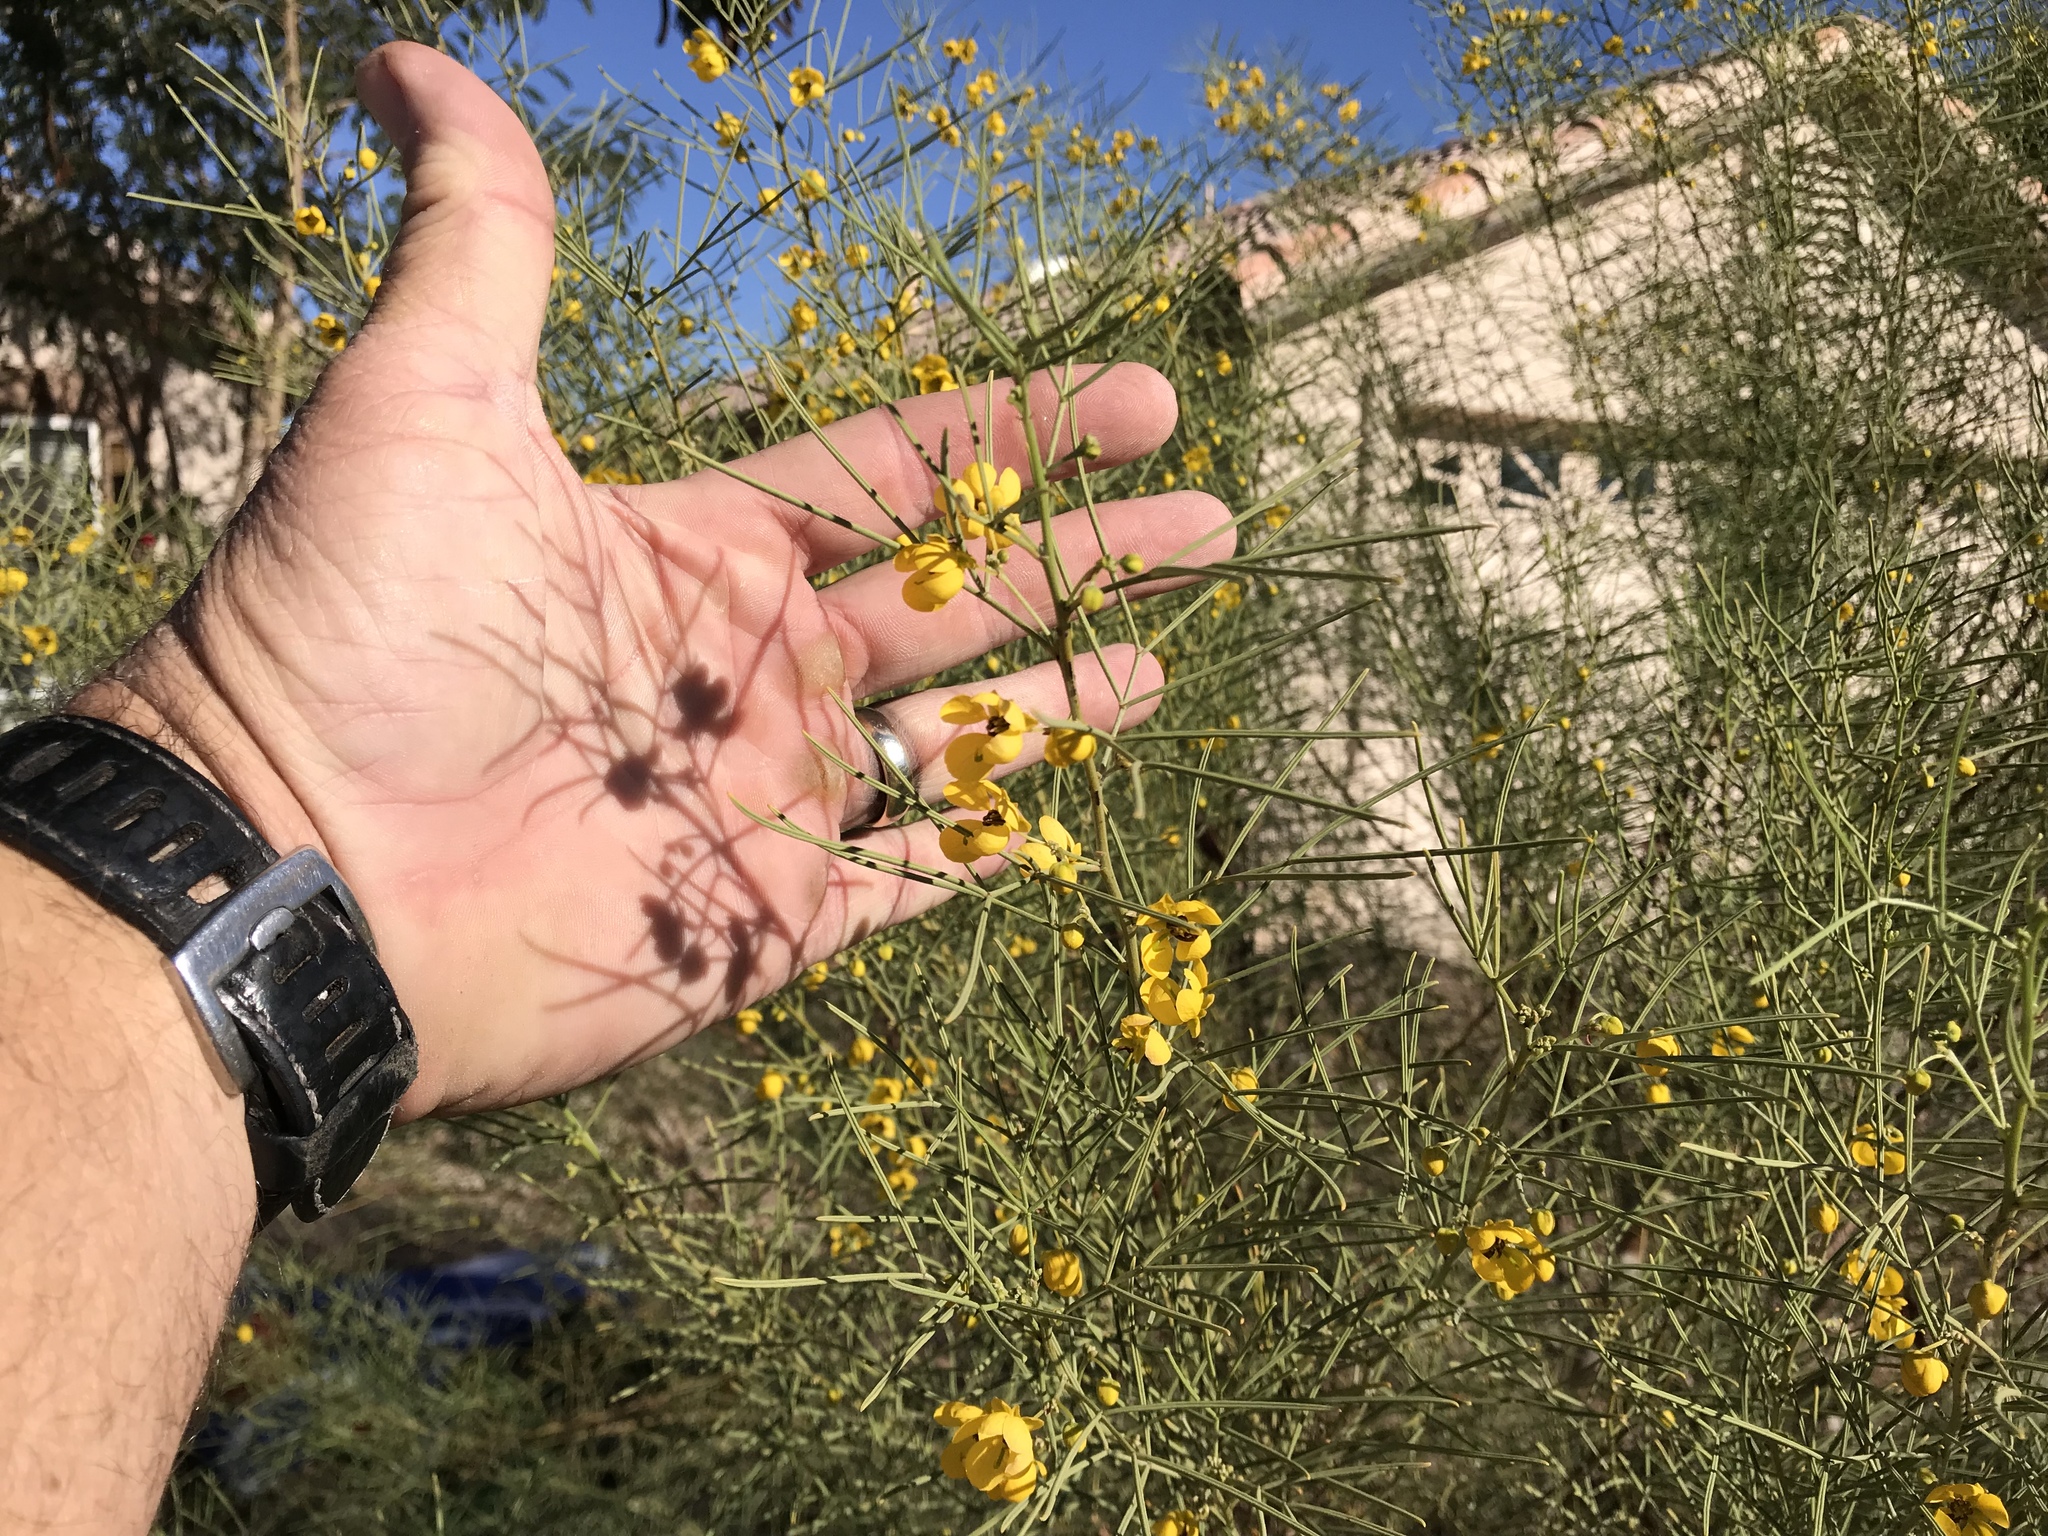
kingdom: Plantae
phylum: Tracheophyta
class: Magnoliopsida
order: Fabales
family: Fabaceae
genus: Senna
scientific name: Senna artemisioides
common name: Burnt-leaved acacia
